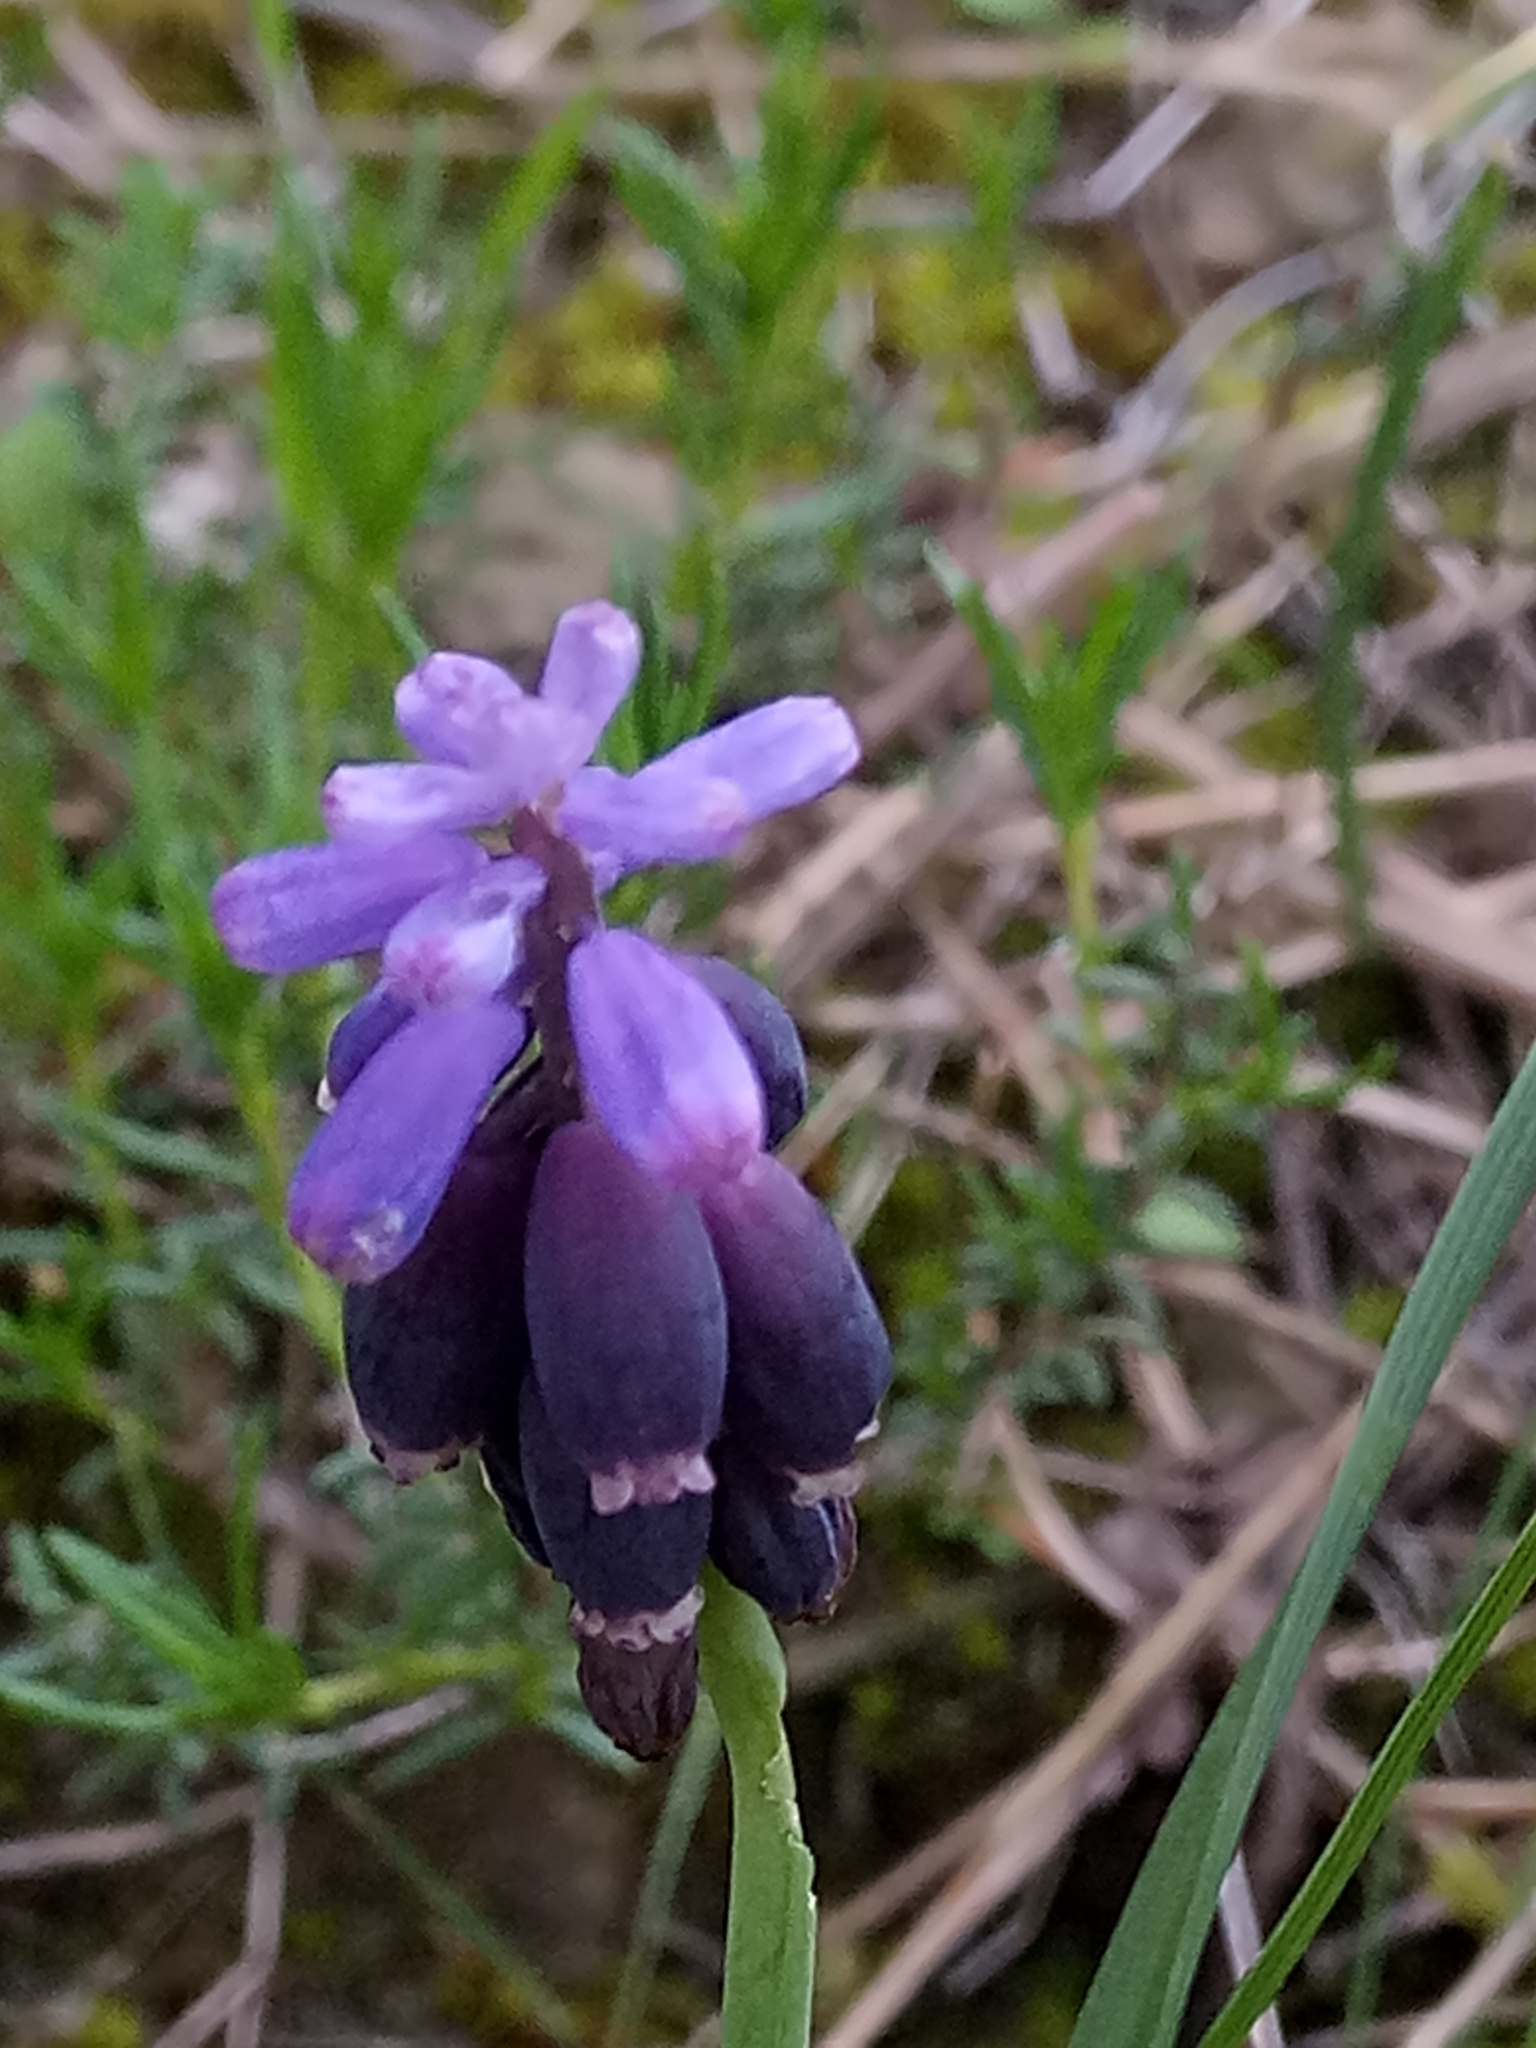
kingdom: Plantae
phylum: Tracheophyta
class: Liliopsida
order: Asparagales
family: Asparagaceae
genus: Muscari
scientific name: Muscari baeticum
